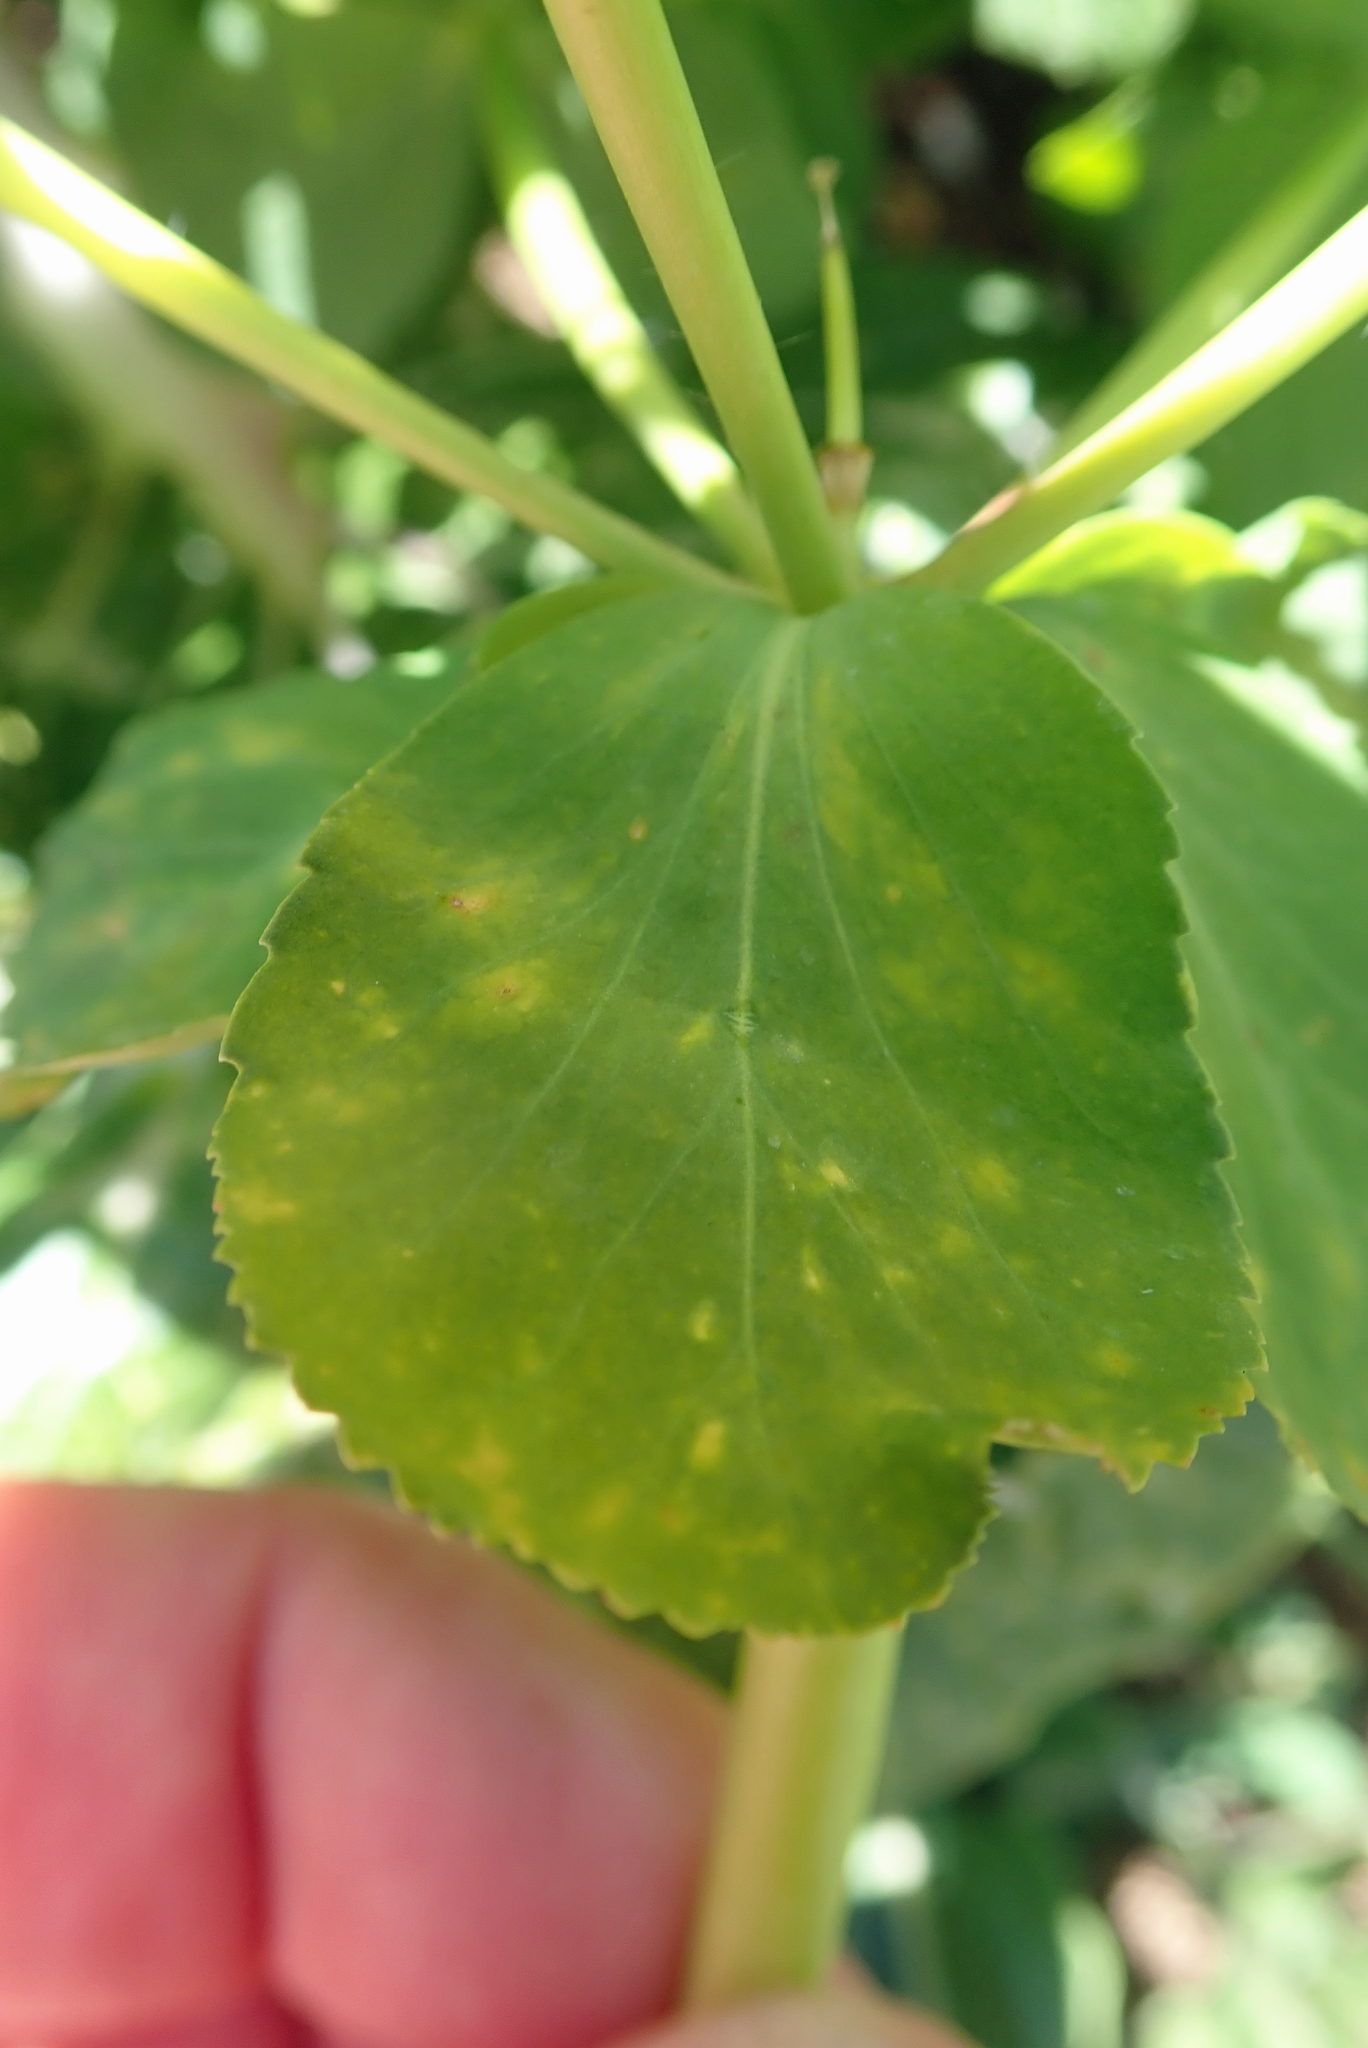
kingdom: Plantae
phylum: Tracheophyta
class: Magnoliopsida
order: Malpighiales
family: Euphorbiaceae
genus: Euphorbia
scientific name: Euphorbia helioscopia
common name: Sun spurge
